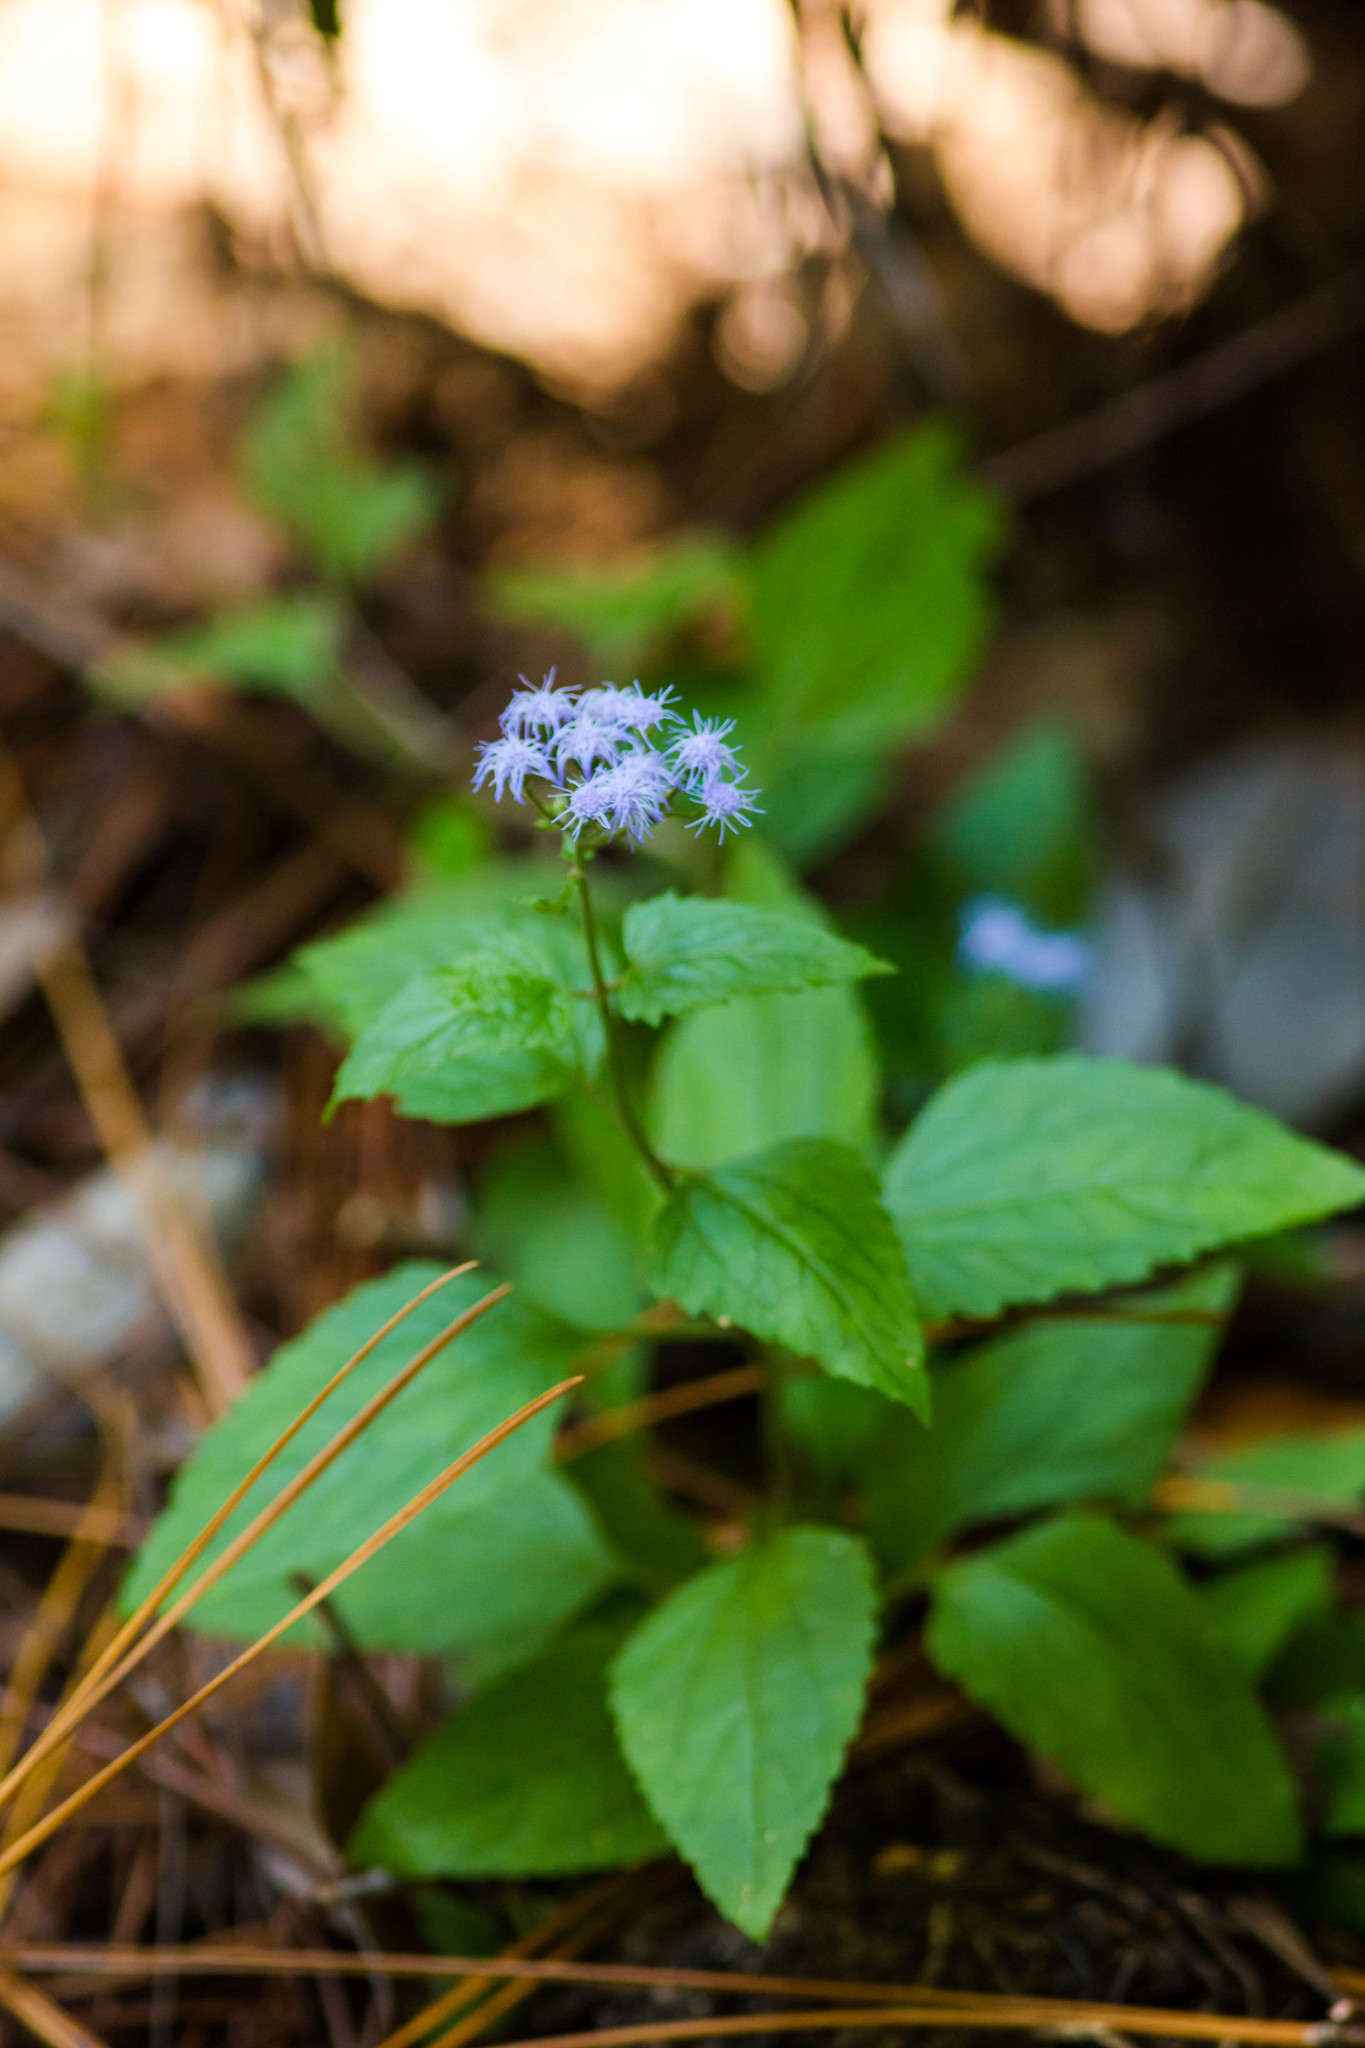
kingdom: Plantae
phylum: Tracheophyta
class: Magnoliopsida
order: Asterales
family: Asteraceae
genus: Conoclinium
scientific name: Conoclinium coelestinum
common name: Blue mistflower
